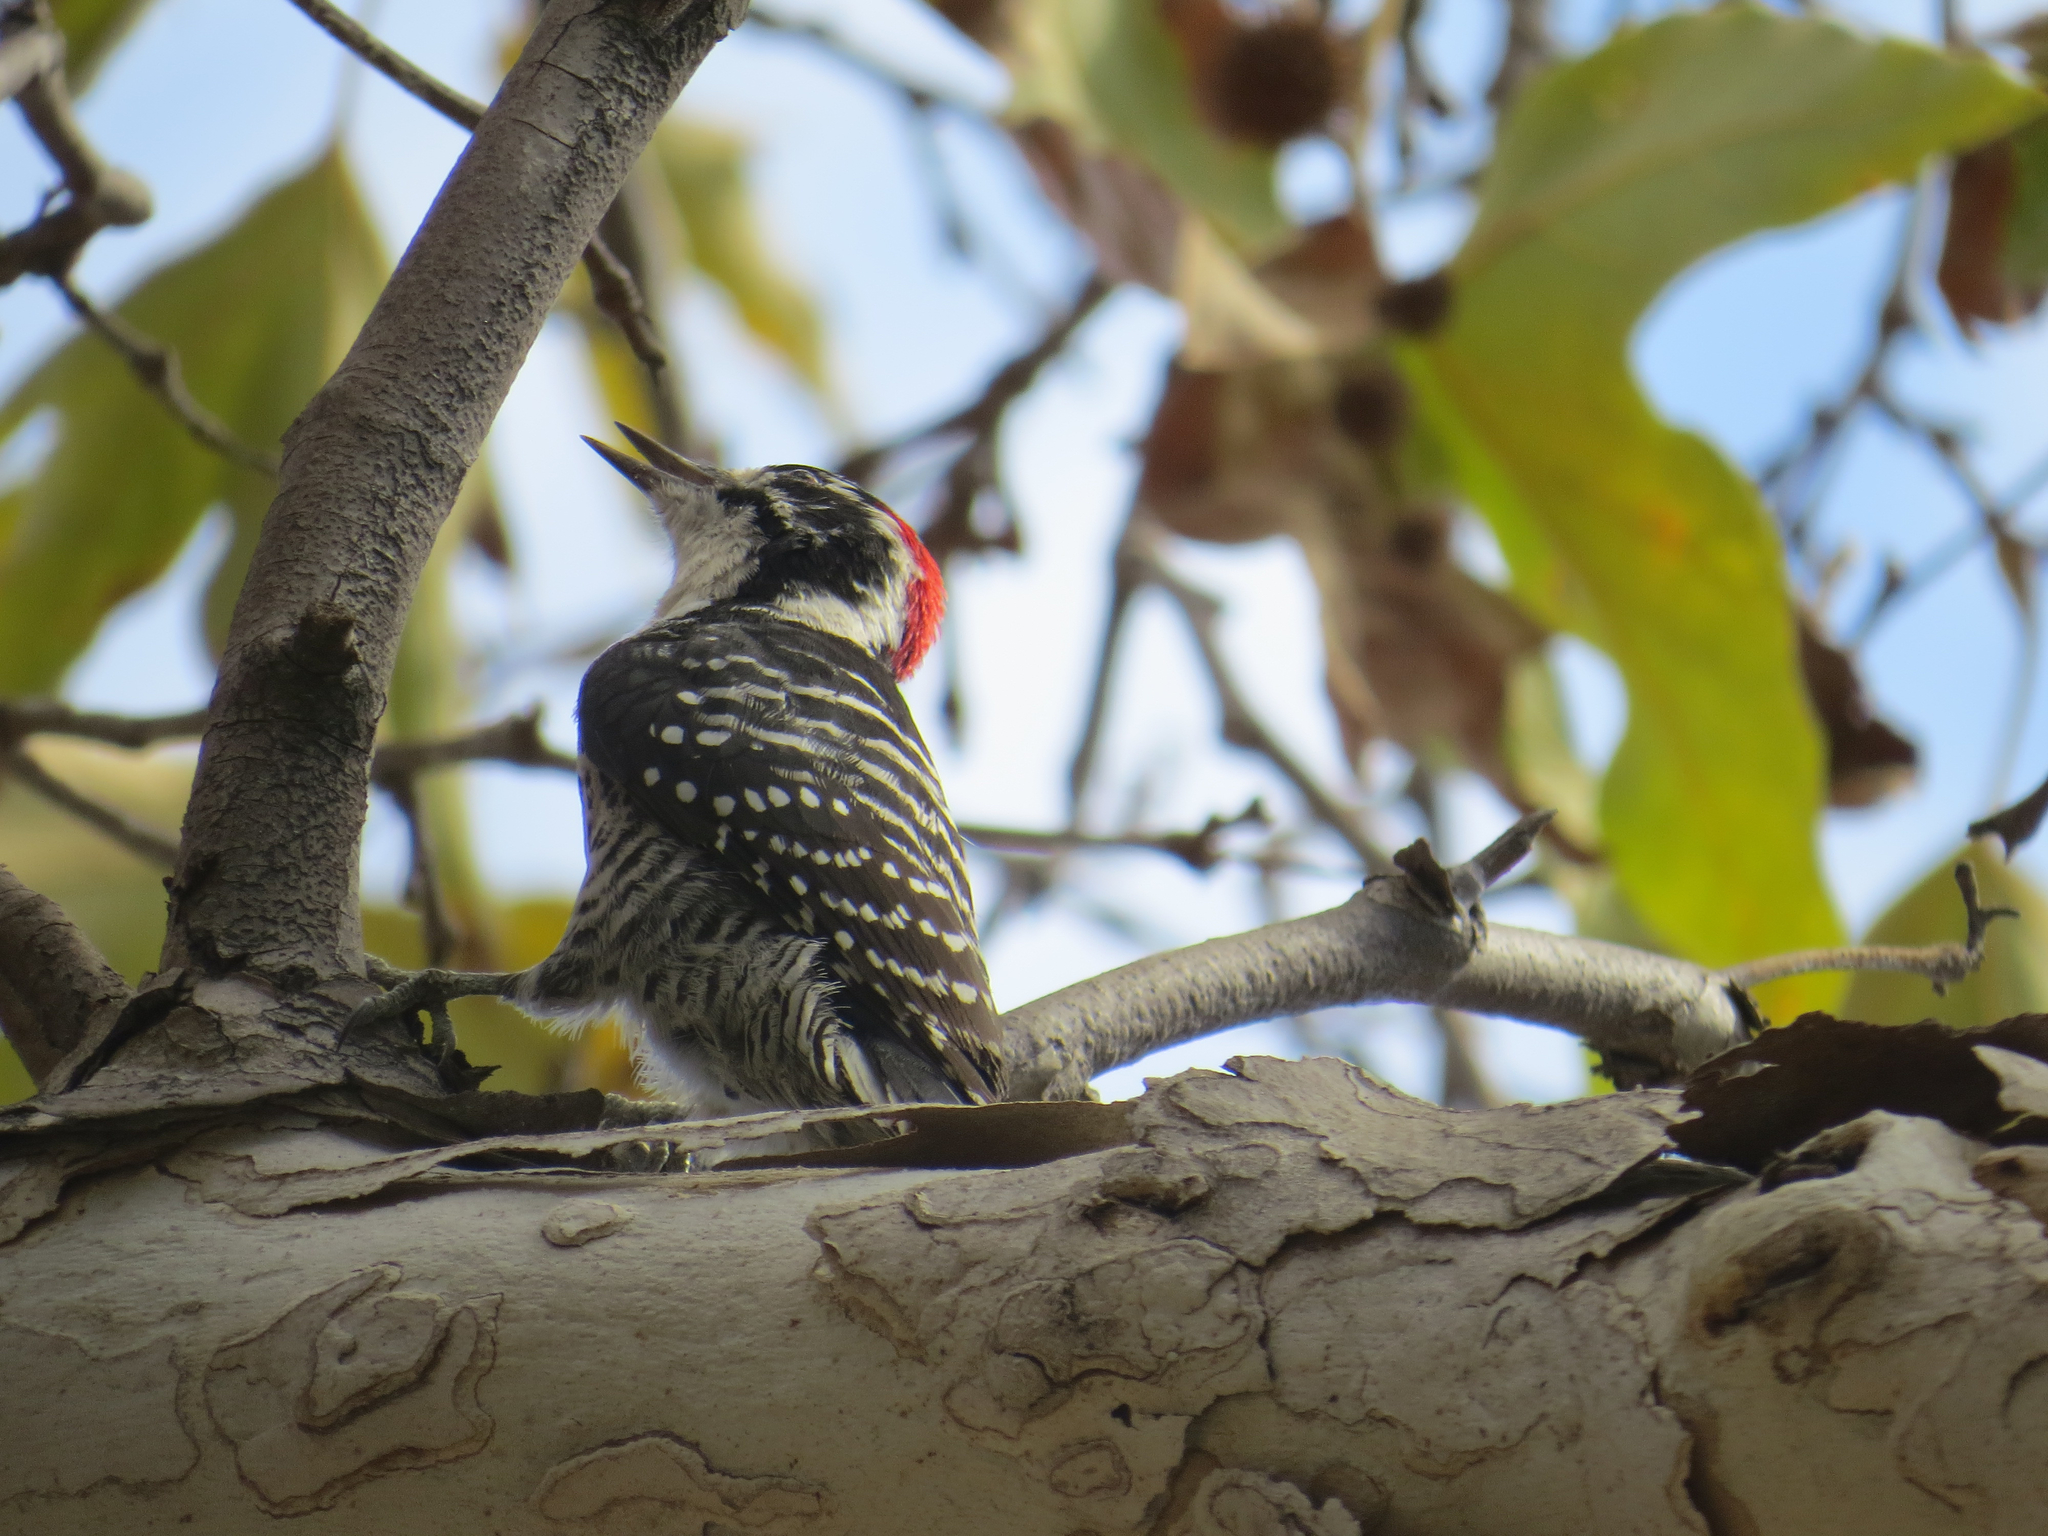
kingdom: Animalia
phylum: Chordata
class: Aves
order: Piciformes
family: Picidae
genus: Dryobates
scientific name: Dryobates nuttallii
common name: Nuttall's woodpecker
